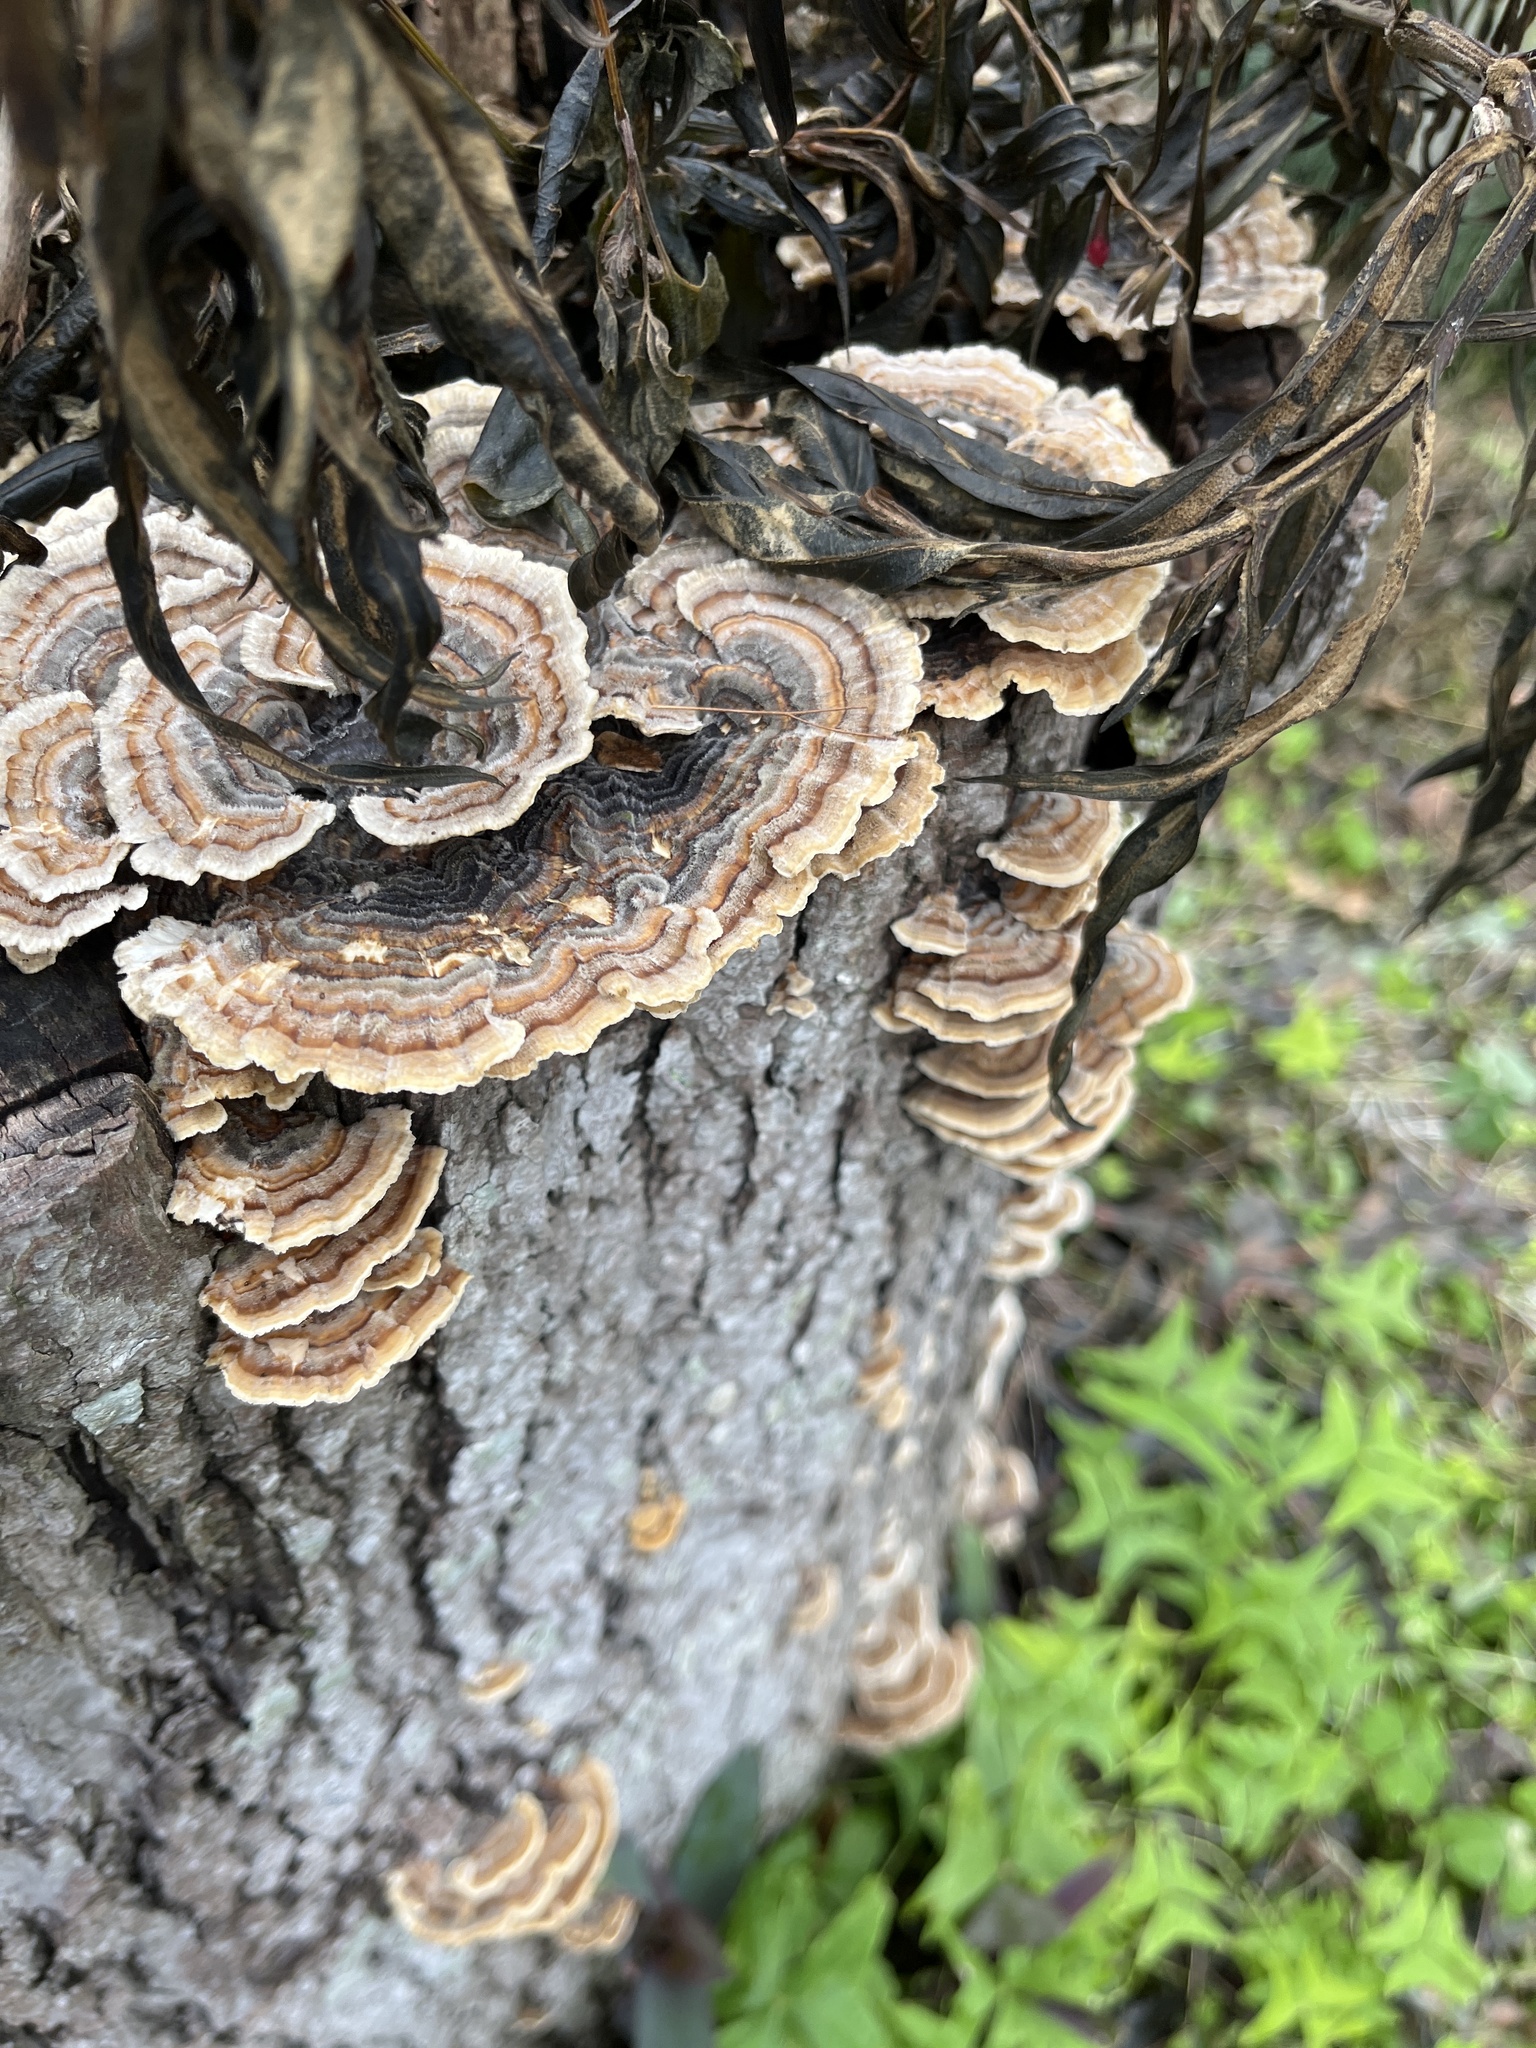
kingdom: Fungi
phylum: Basidiomycota
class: Agaricomycetes
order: Polyporales
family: Polyporaceae
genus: Trametes
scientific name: Trametes versicolor
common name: Turkeytail
